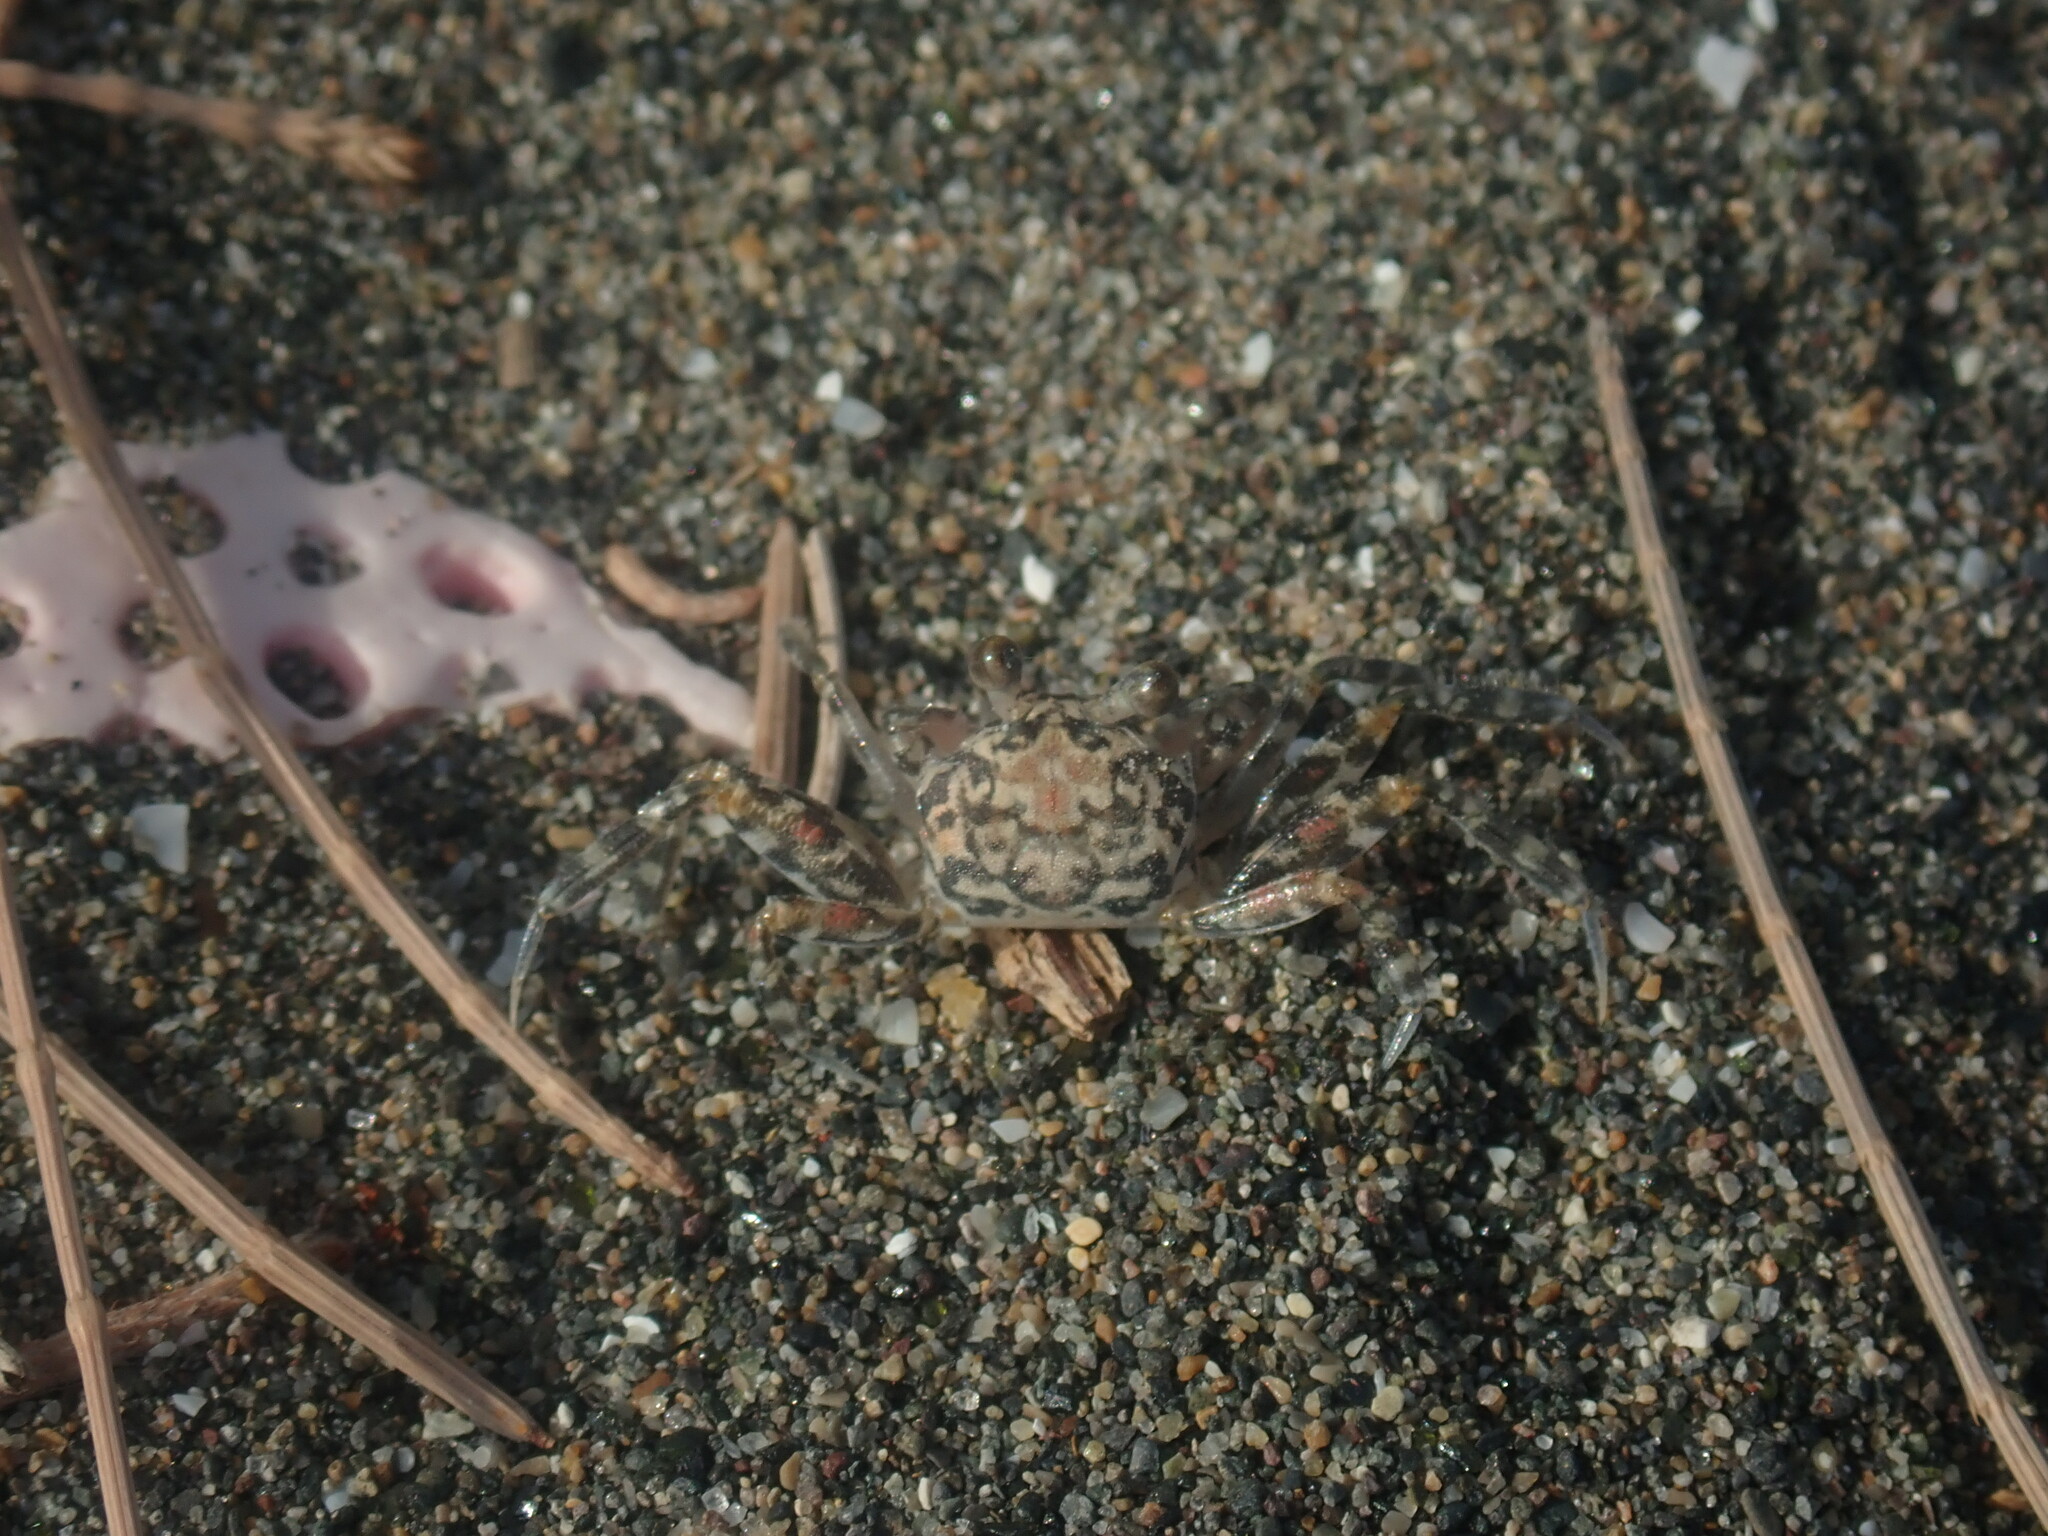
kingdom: Animalia
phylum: Arthropoda
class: Malacostraca
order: Decapoda
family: Ocypodidae
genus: Ocypode
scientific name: Ocypode quadrata
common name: Ghost crab
